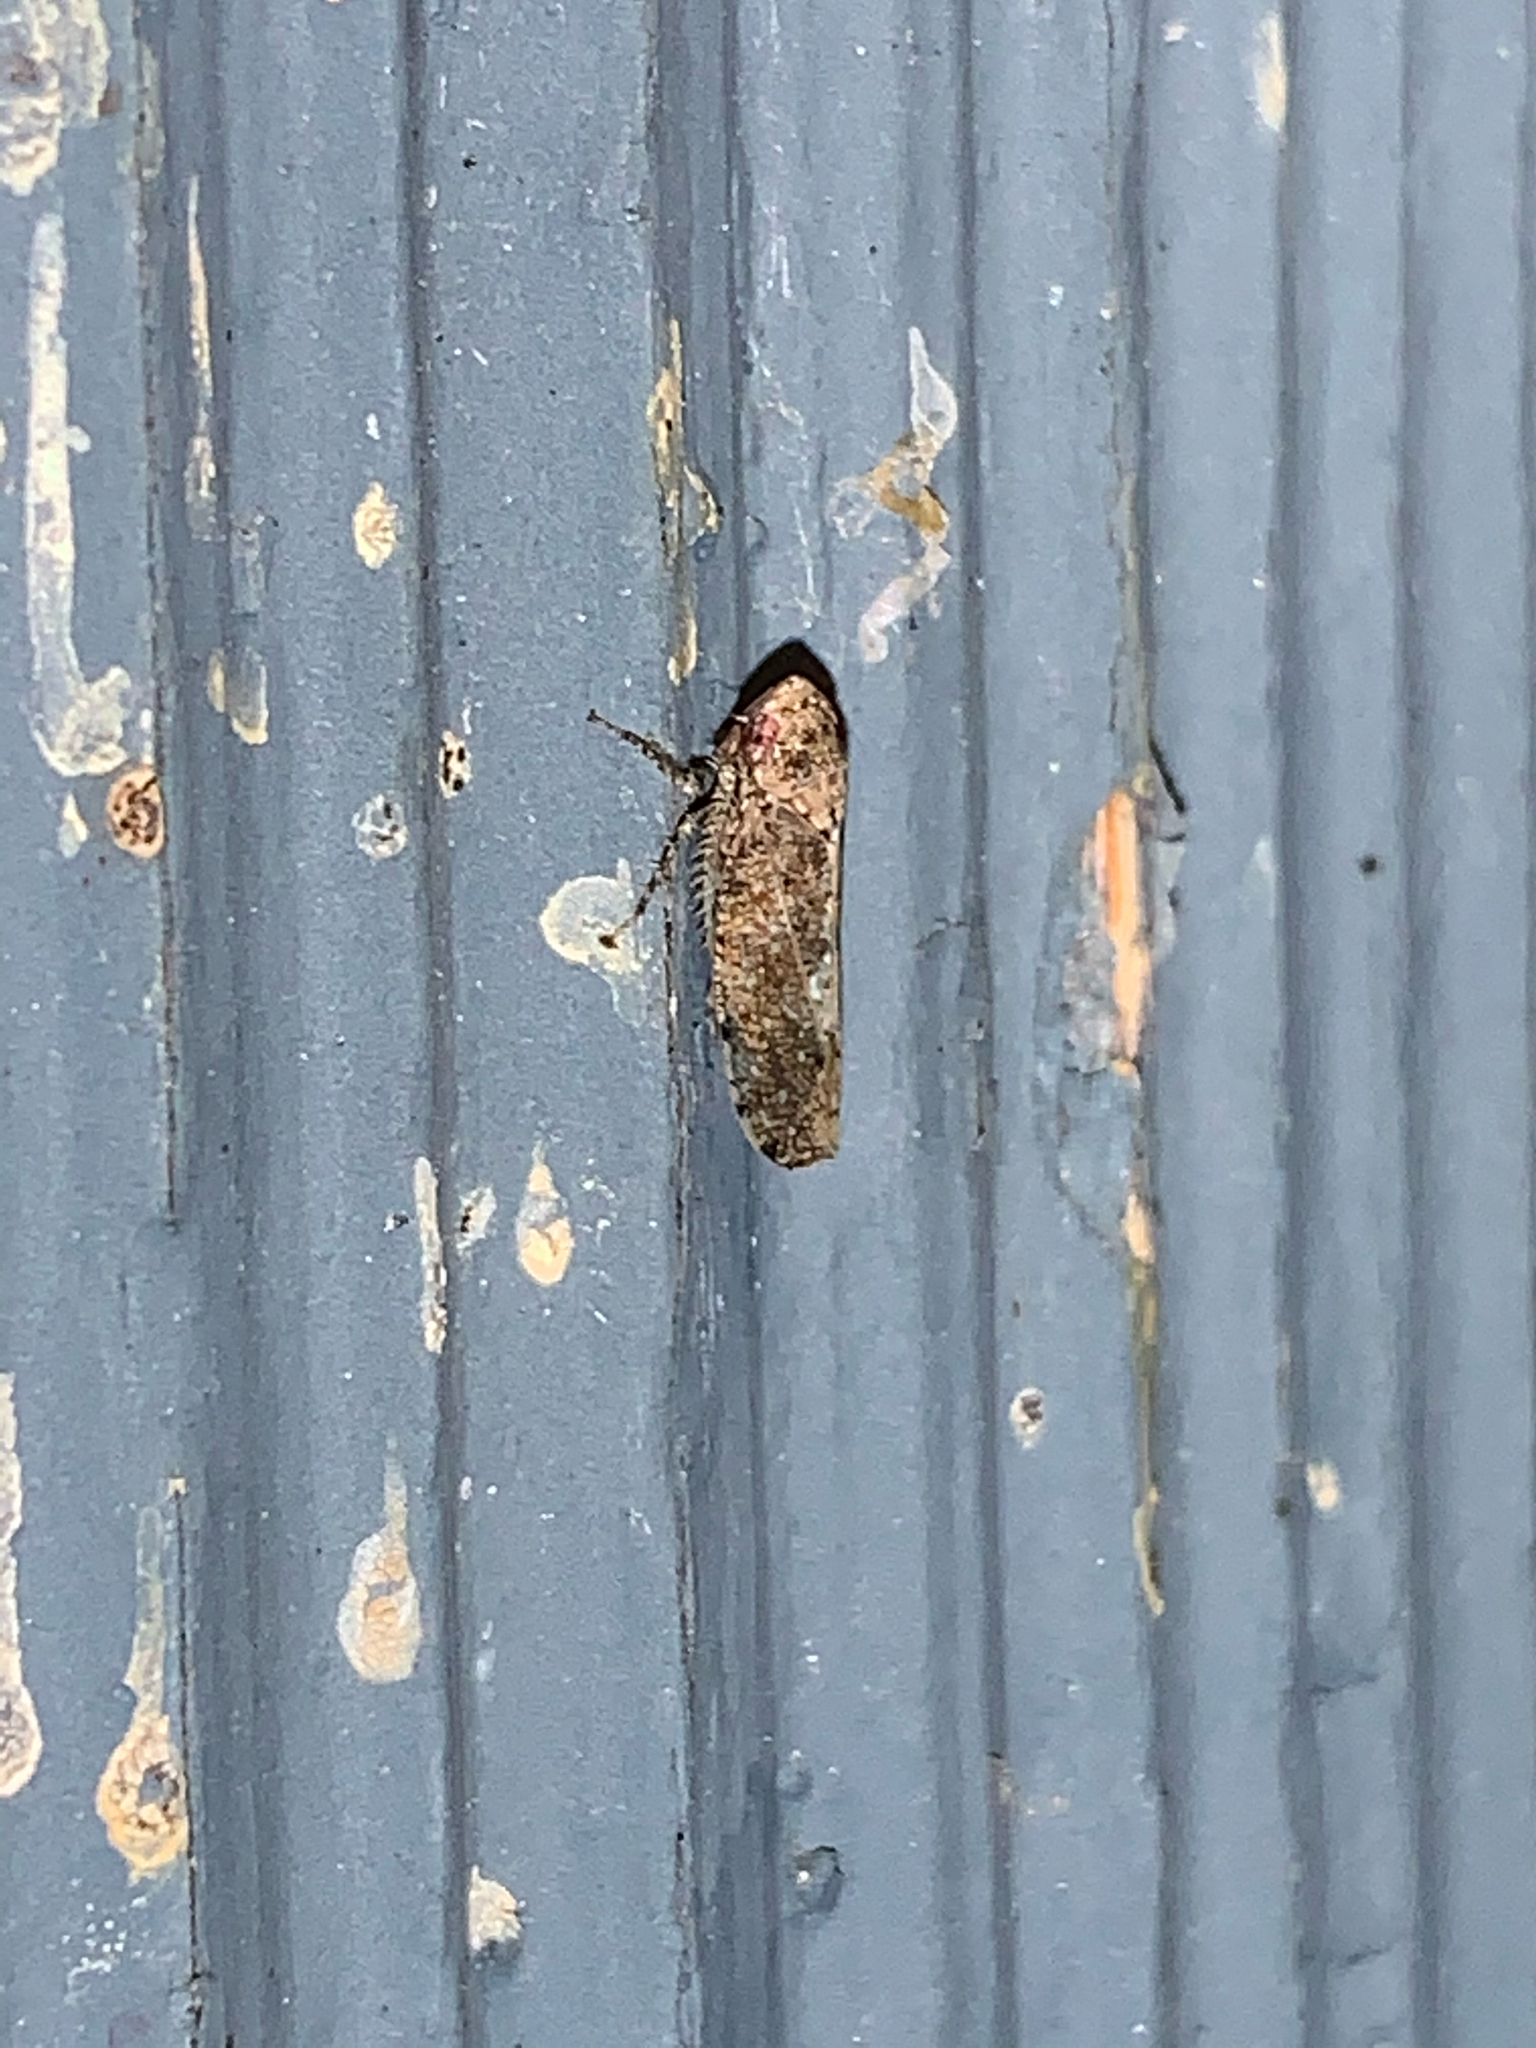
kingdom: Animalia
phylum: Arthropoda
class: Insecta
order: Hemiptera
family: Cicadellidae
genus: Paraphlepsius
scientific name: Paraphlepsius
